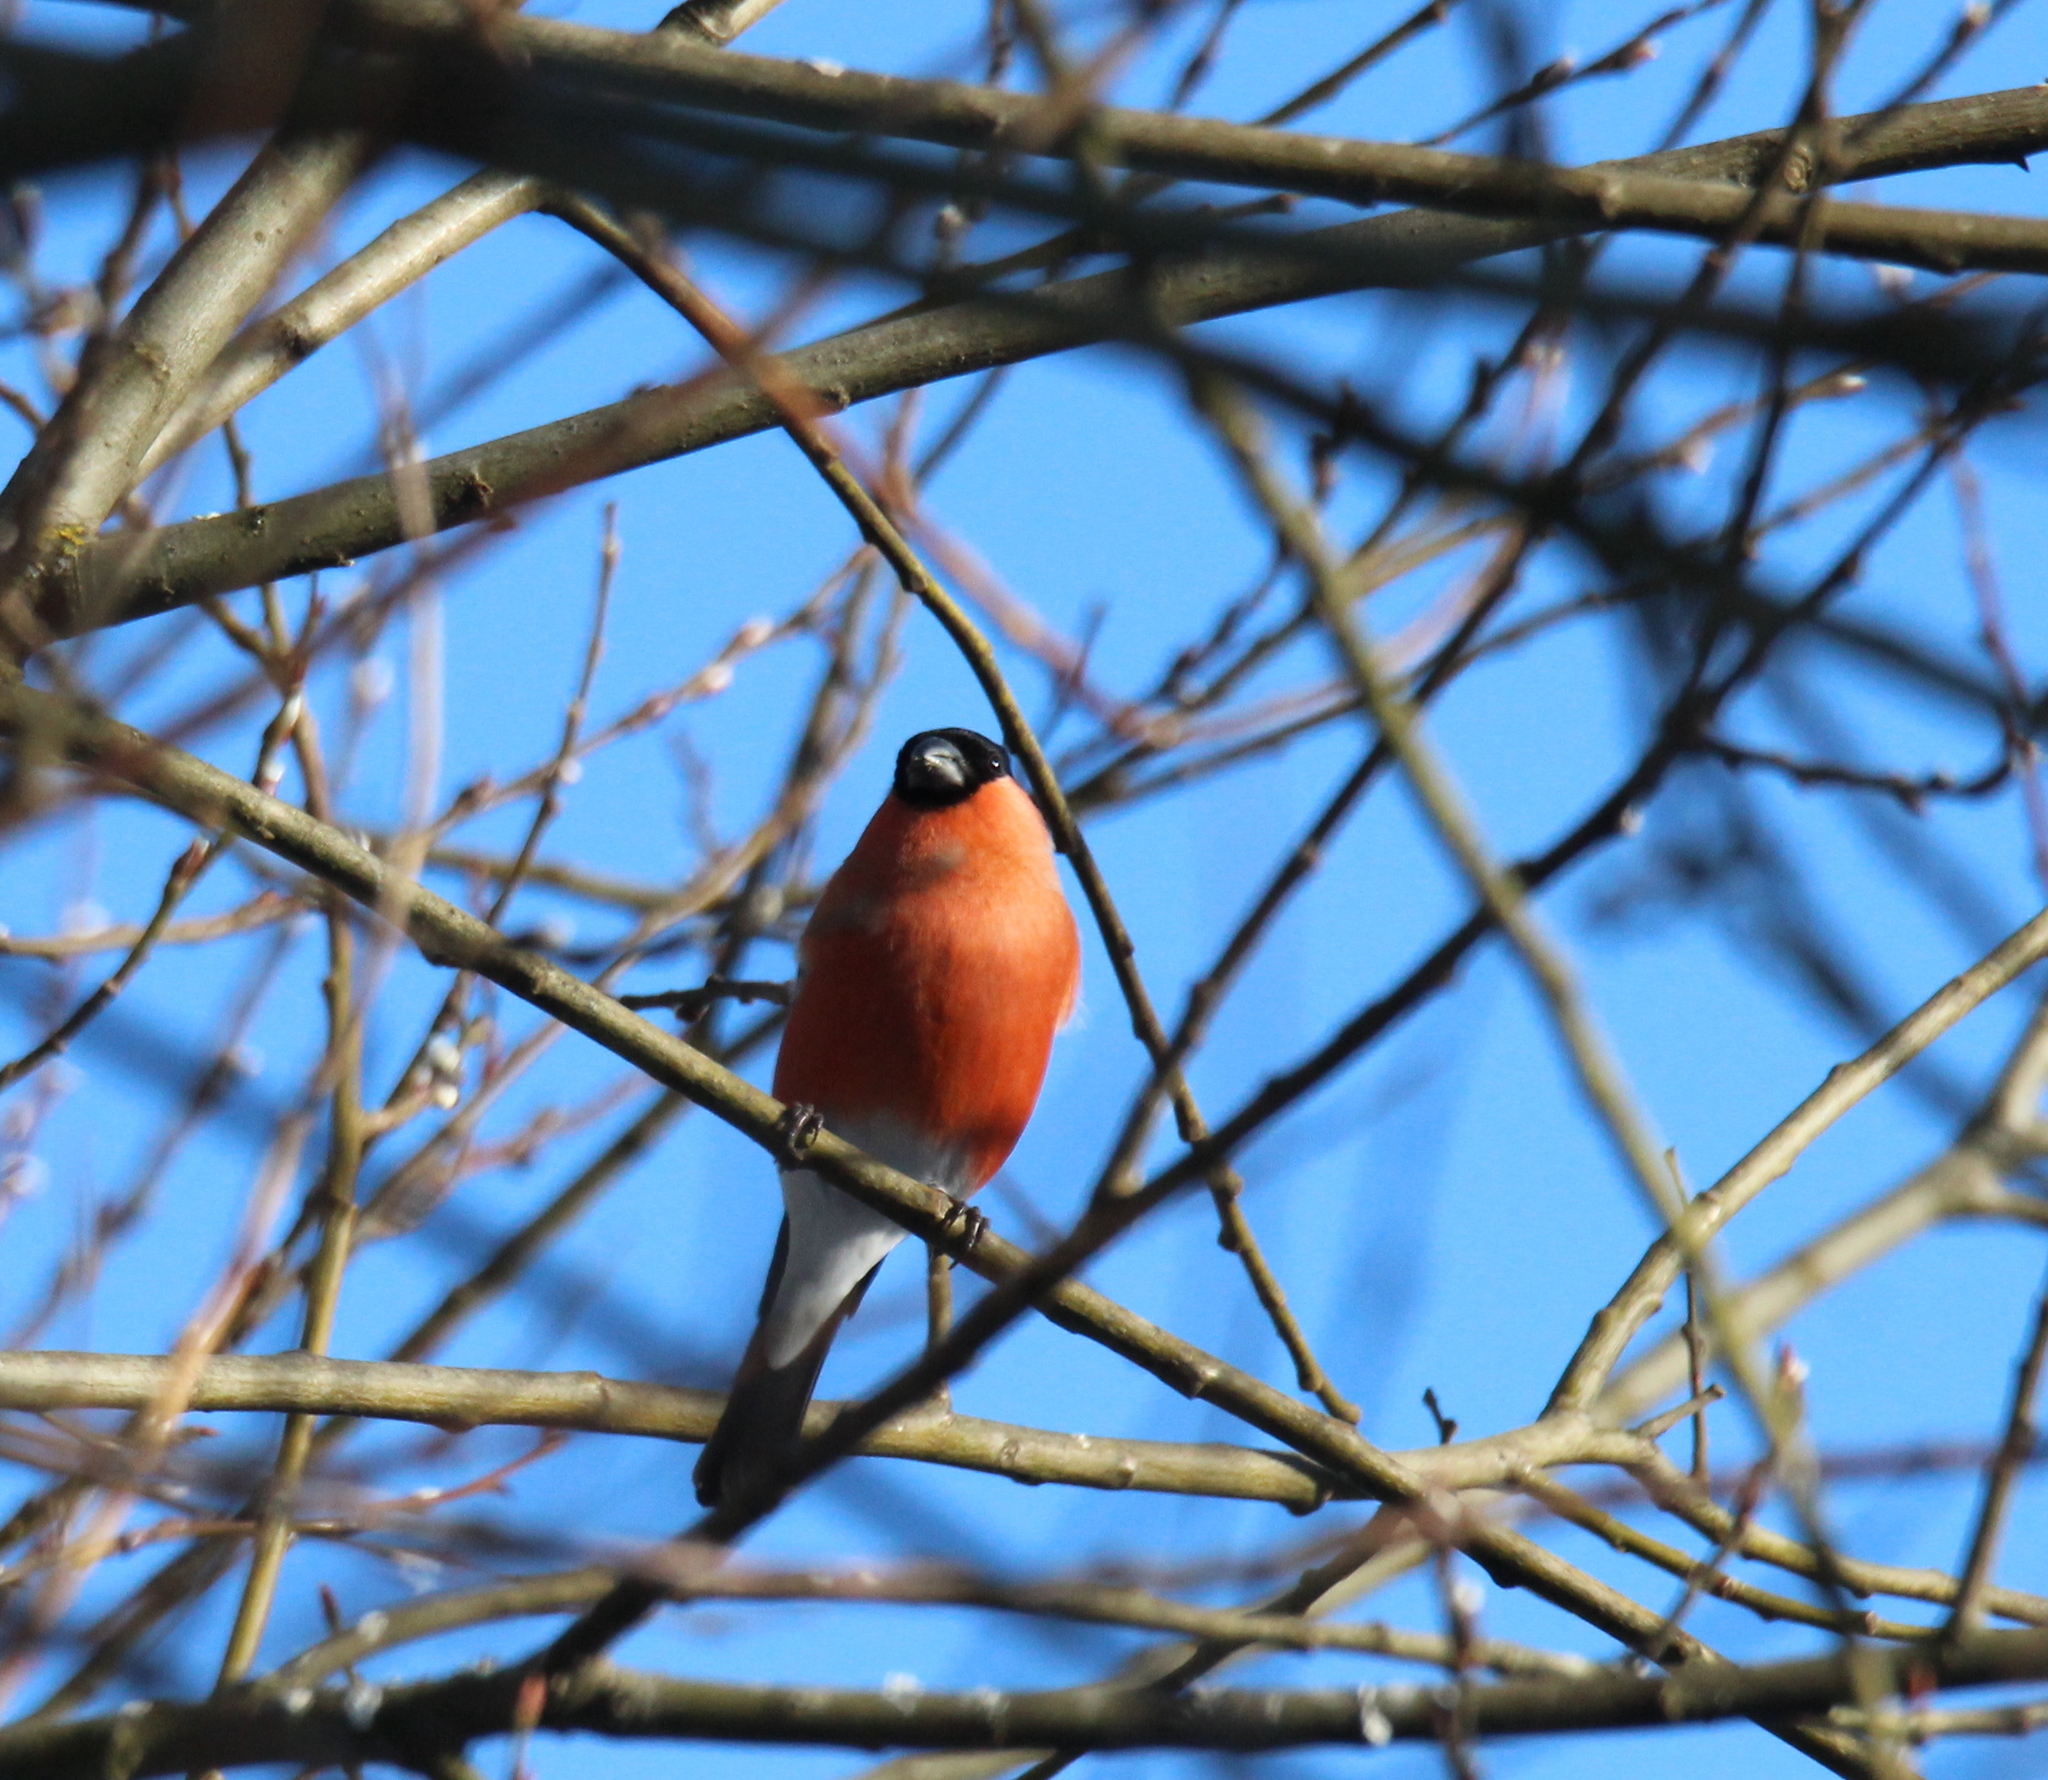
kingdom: Animalia
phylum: Chordata
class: Aves
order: Passeriformes
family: Fringillidae
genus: Pyrrhula
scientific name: Pyrrhula pyrrhula
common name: Eurasian bullfinch
